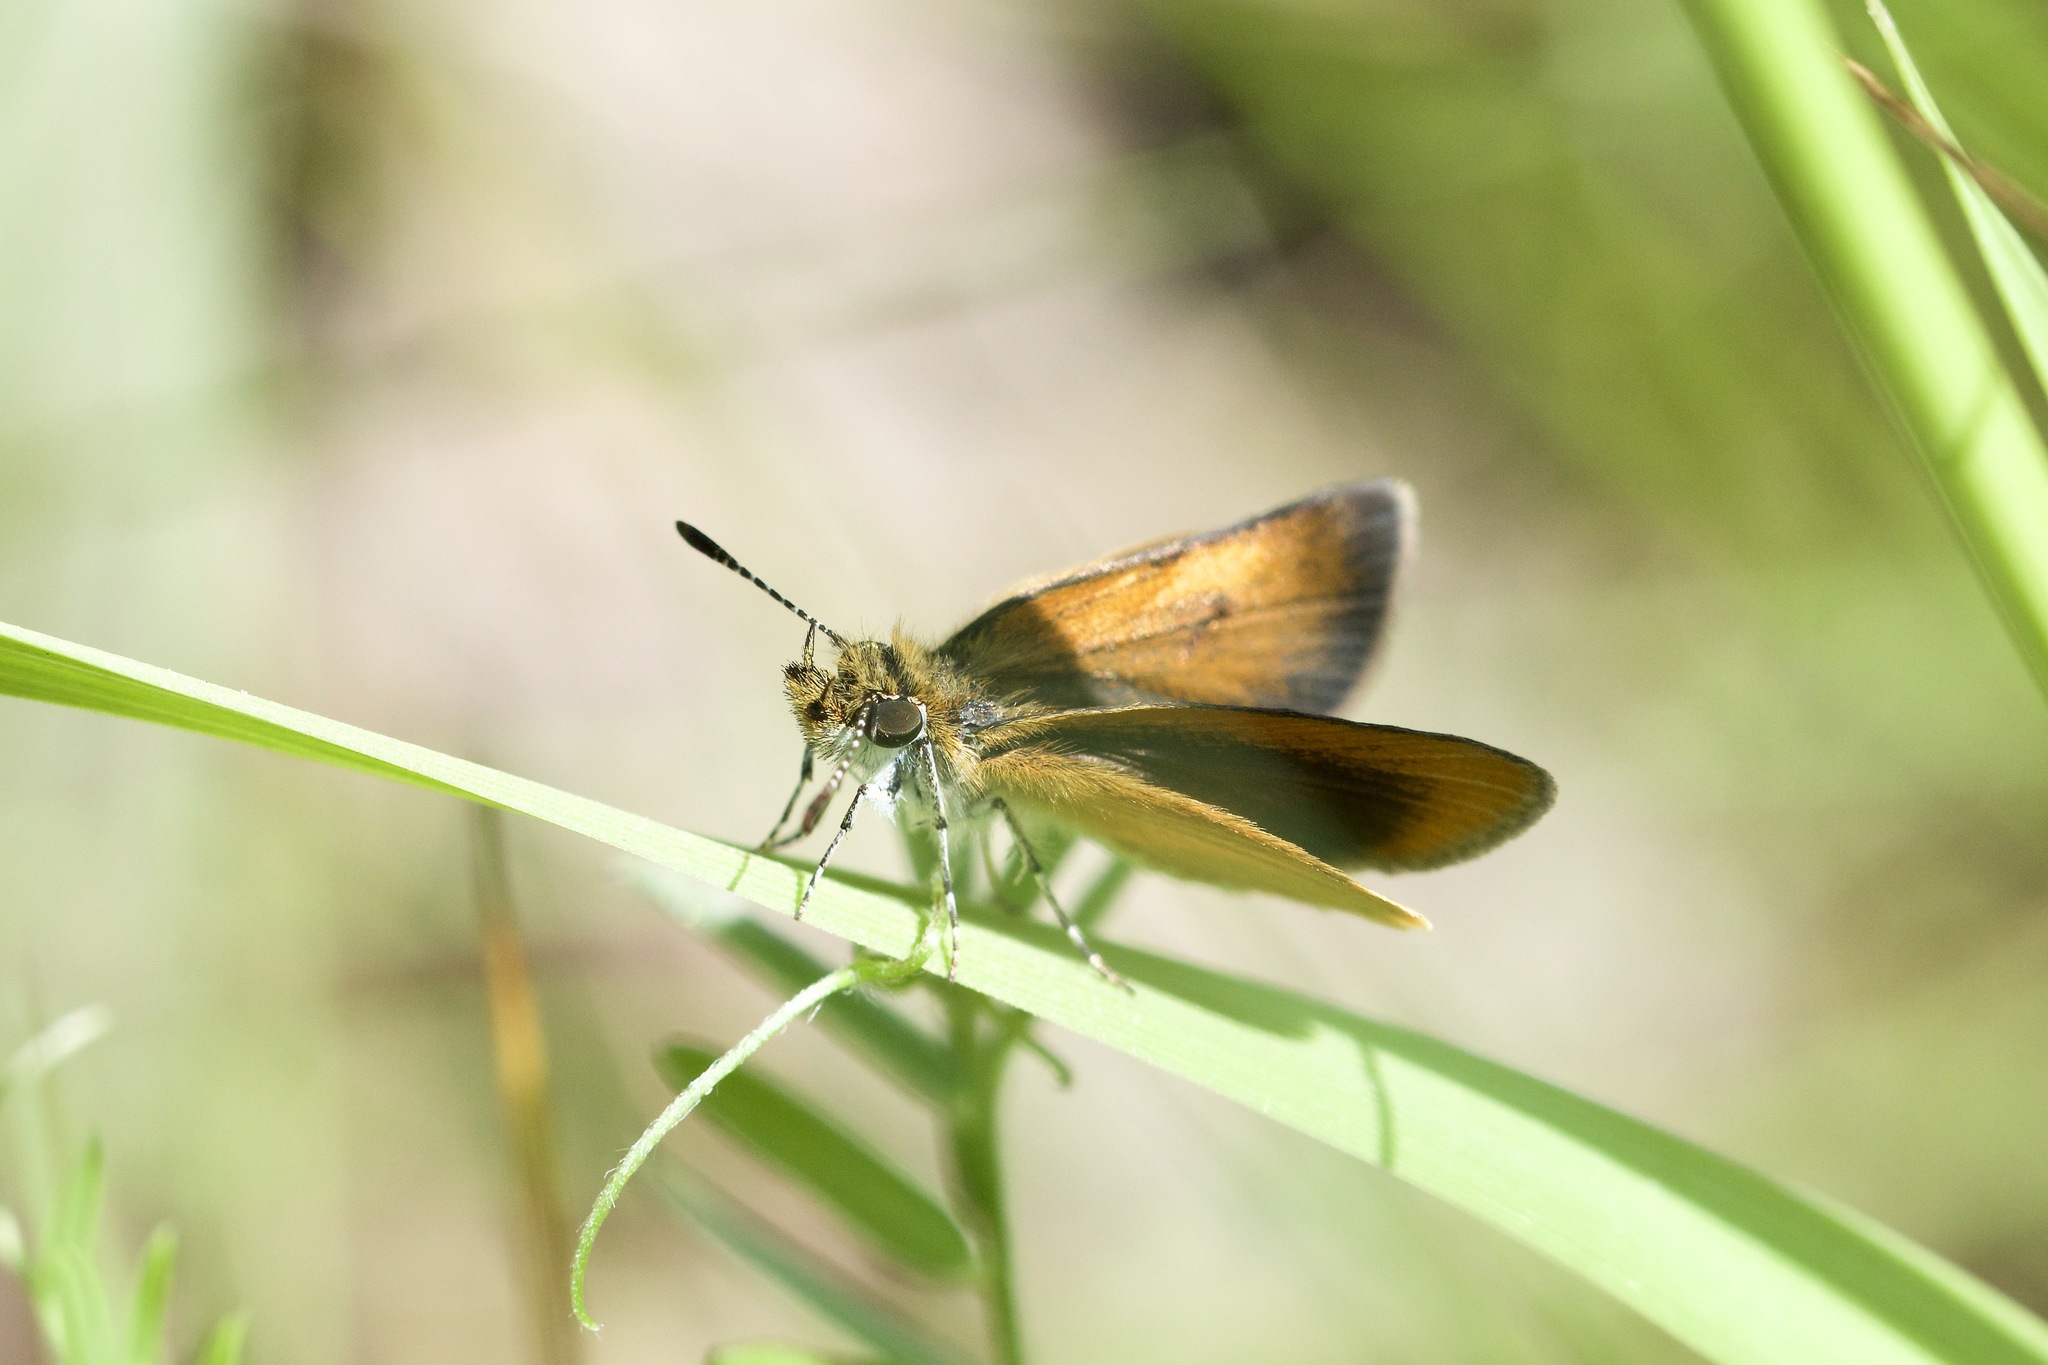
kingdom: Animalia
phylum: Arthropoda
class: Insecta
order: Lepidoptera
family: Hesperiidae
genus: Ancyloxypha
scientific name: Ancyloxypha numitor
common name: Least skipper
